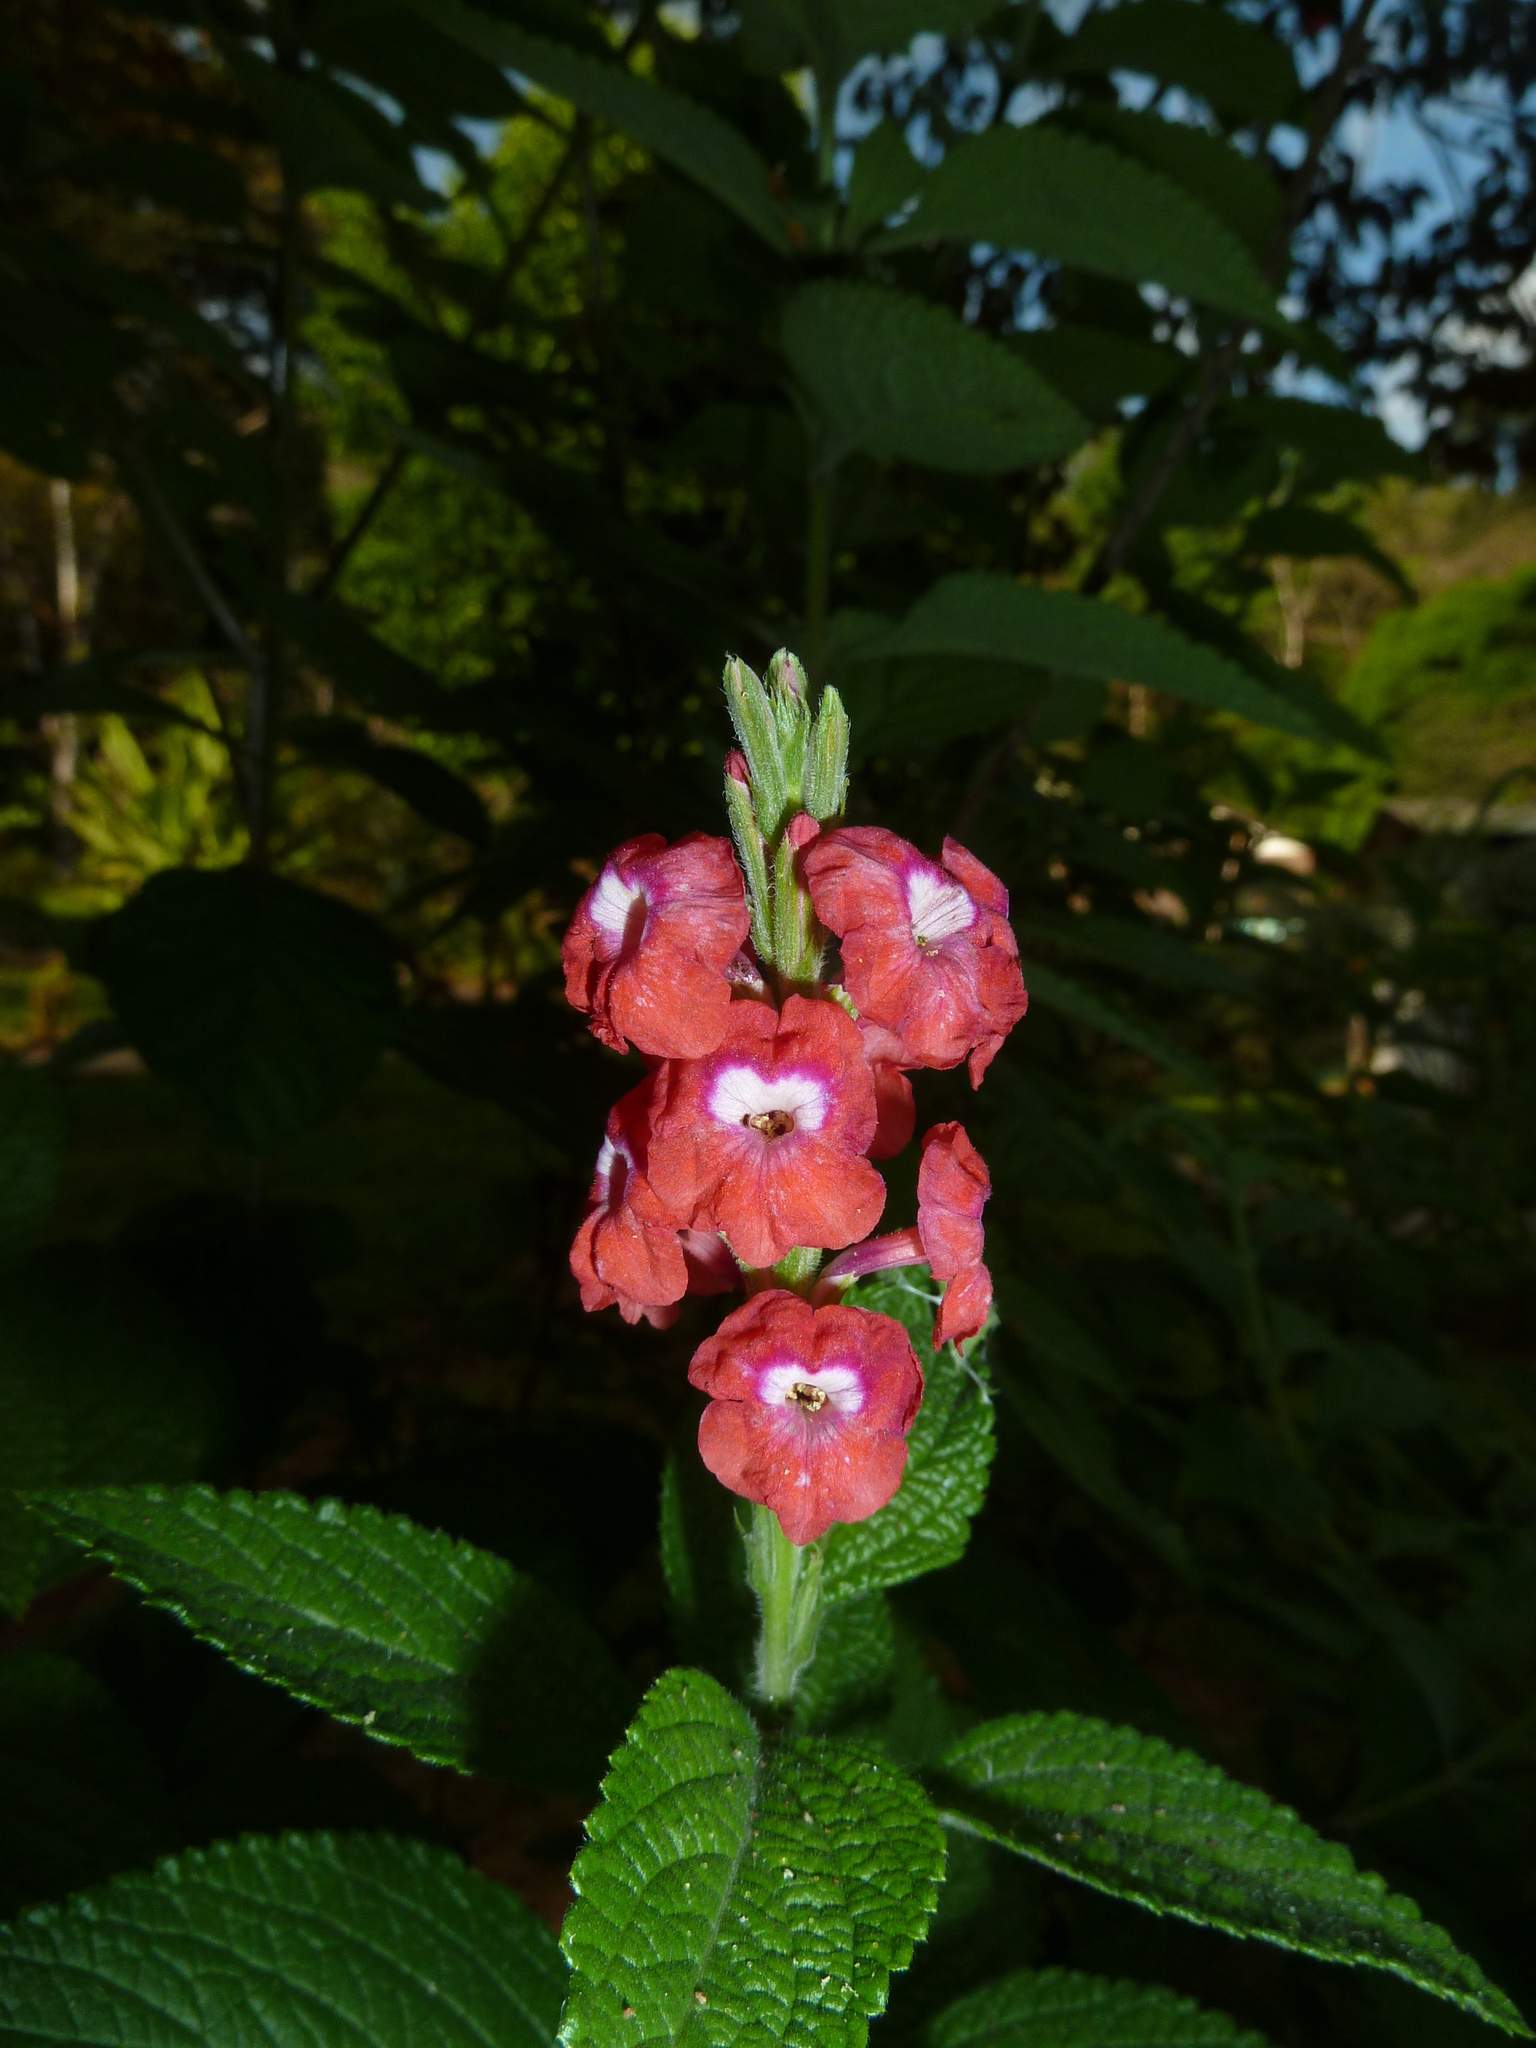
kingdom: Plantae
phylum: Tracheophyta
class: Magnoliopsida
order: Lamiales
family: Verbenaceae
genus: Stachytarpheta
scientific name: Stachytarpheta mutabilis
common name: Changeable velvetberry
